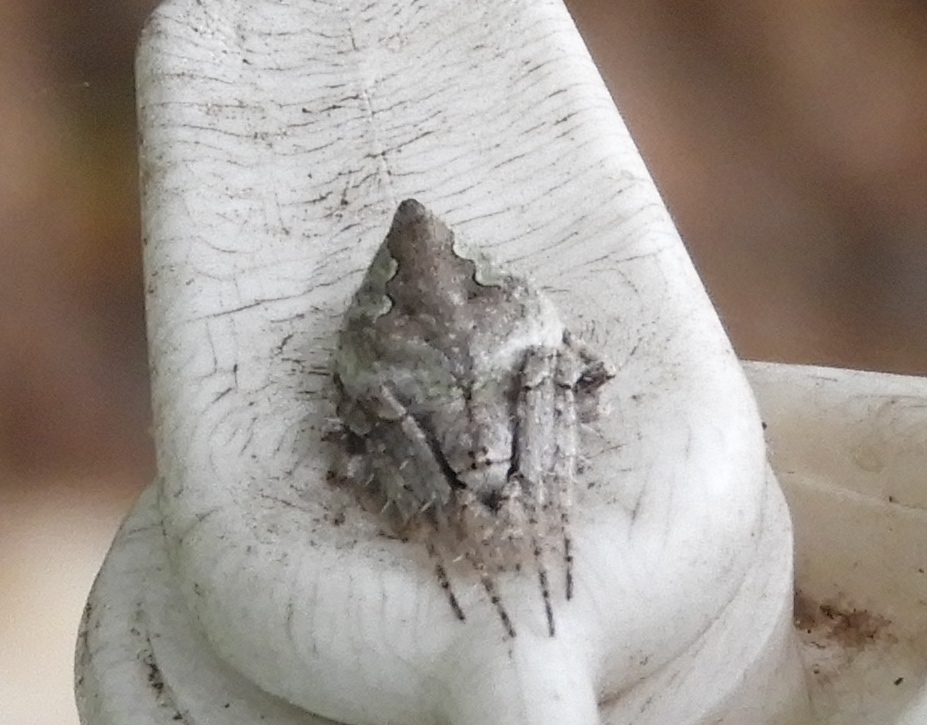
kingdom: Animalia
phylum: Arthropoda
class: Arachnida
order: Araneae
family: Araneidae
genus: Eustala
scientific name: Eustala
